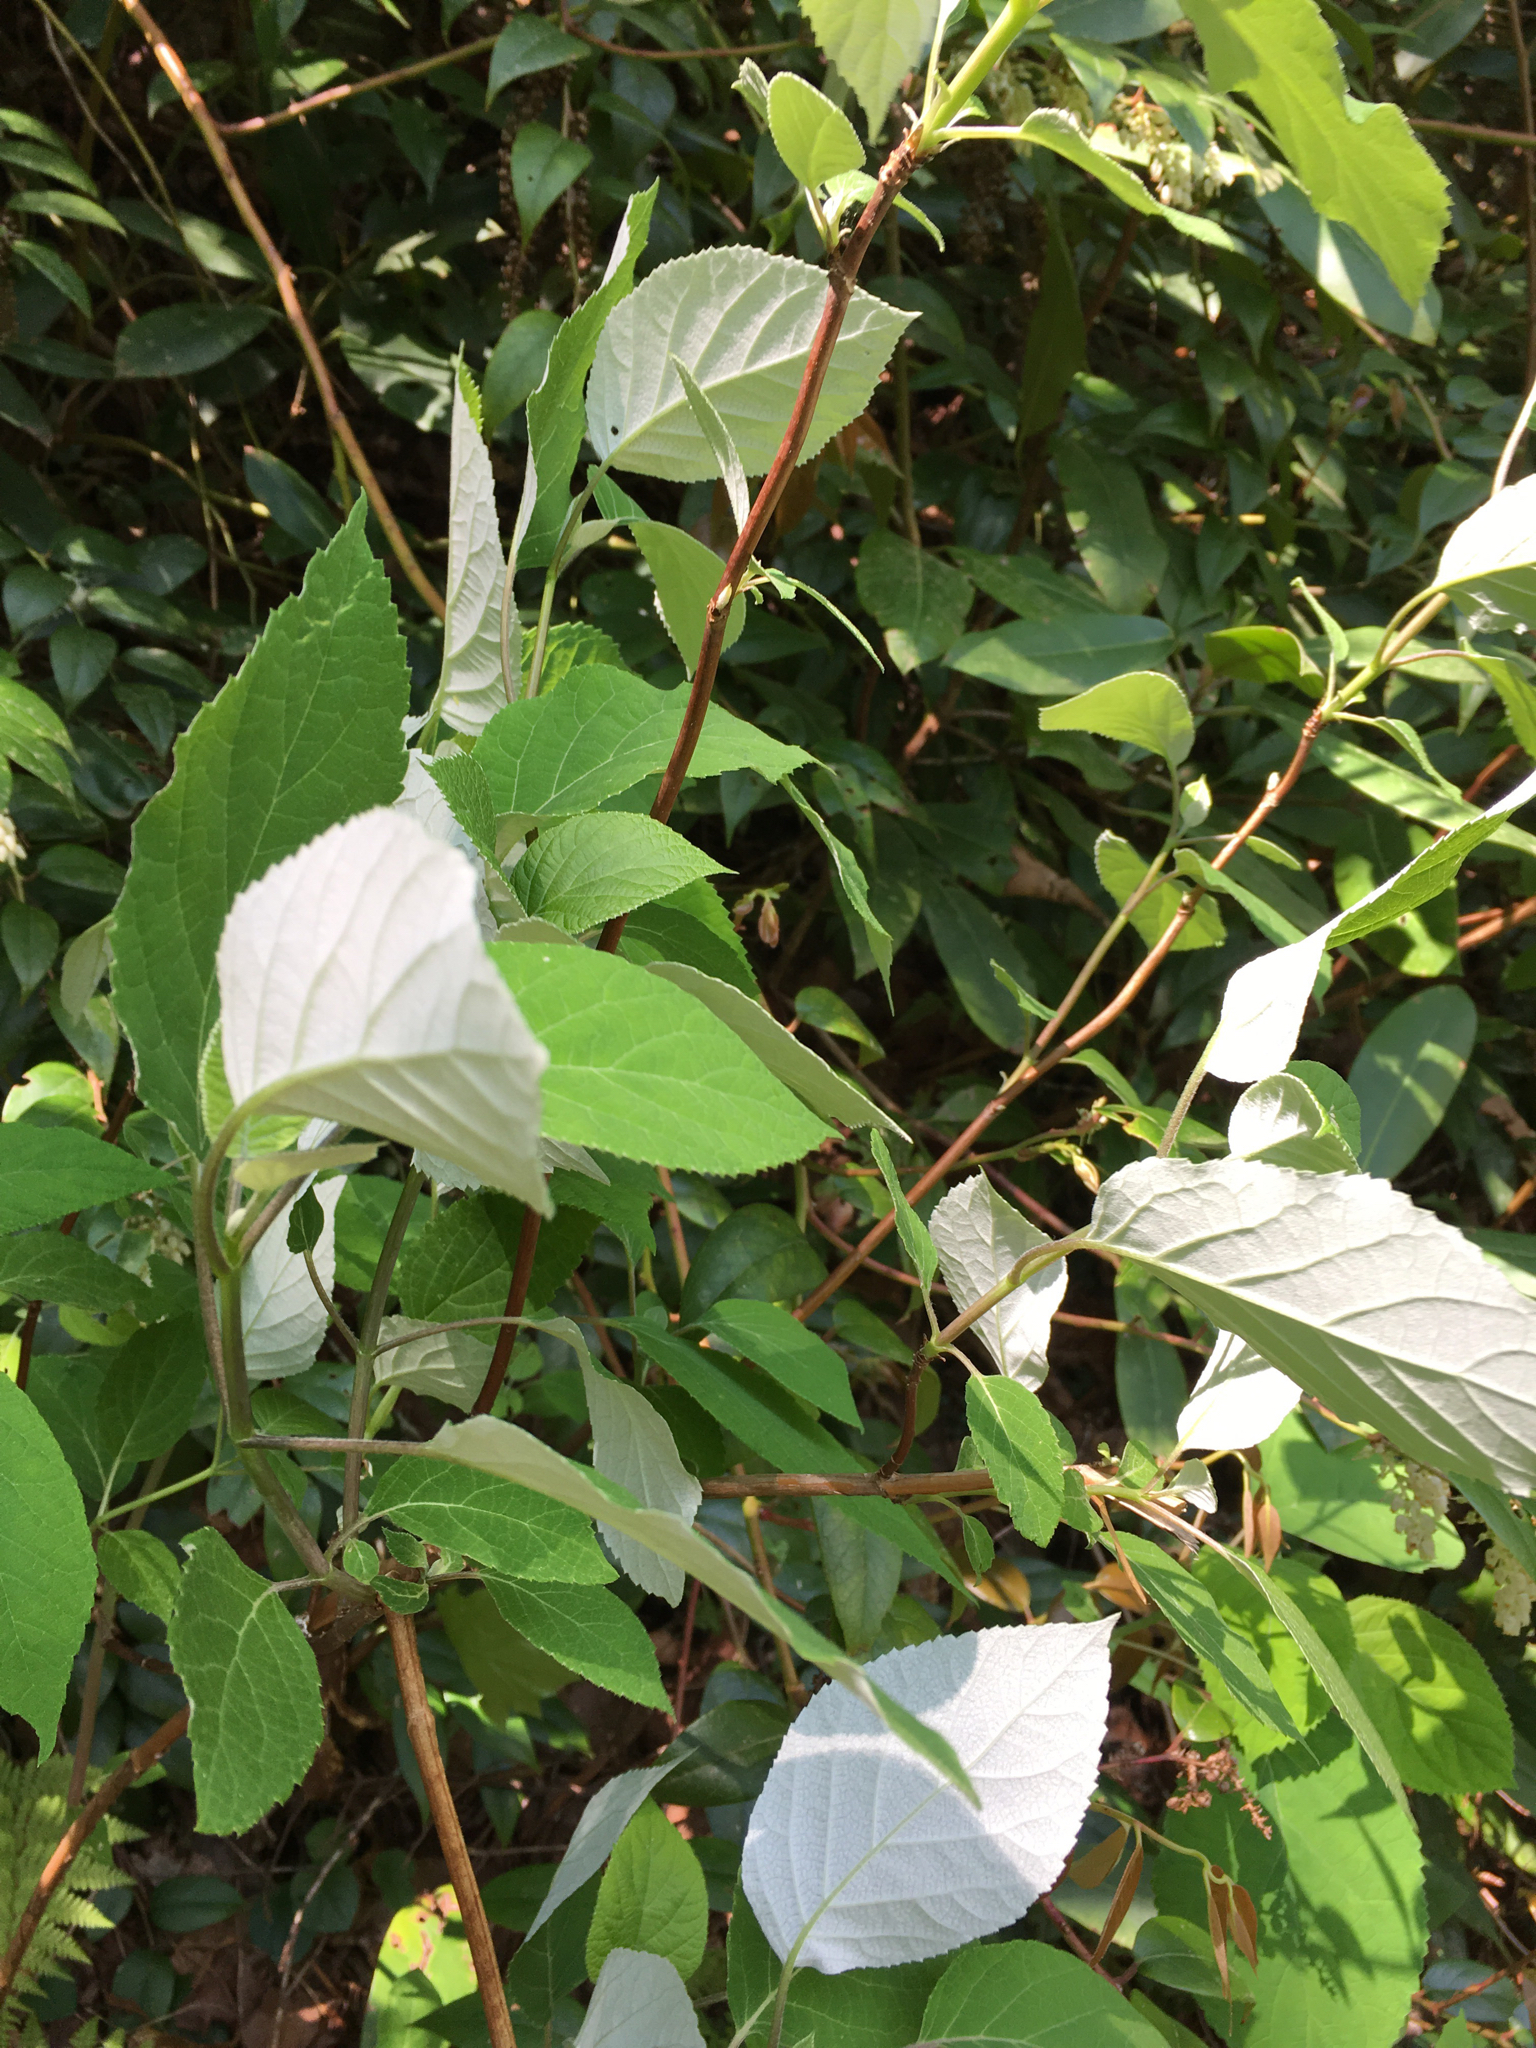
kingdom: Plantae
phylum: Tracheophyta
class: Magnoliopsida
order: Cornales
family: Hydrangeaceae
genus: Hydrangea
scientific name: Hydrangea radiata
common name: Silverleaf hydrangea
